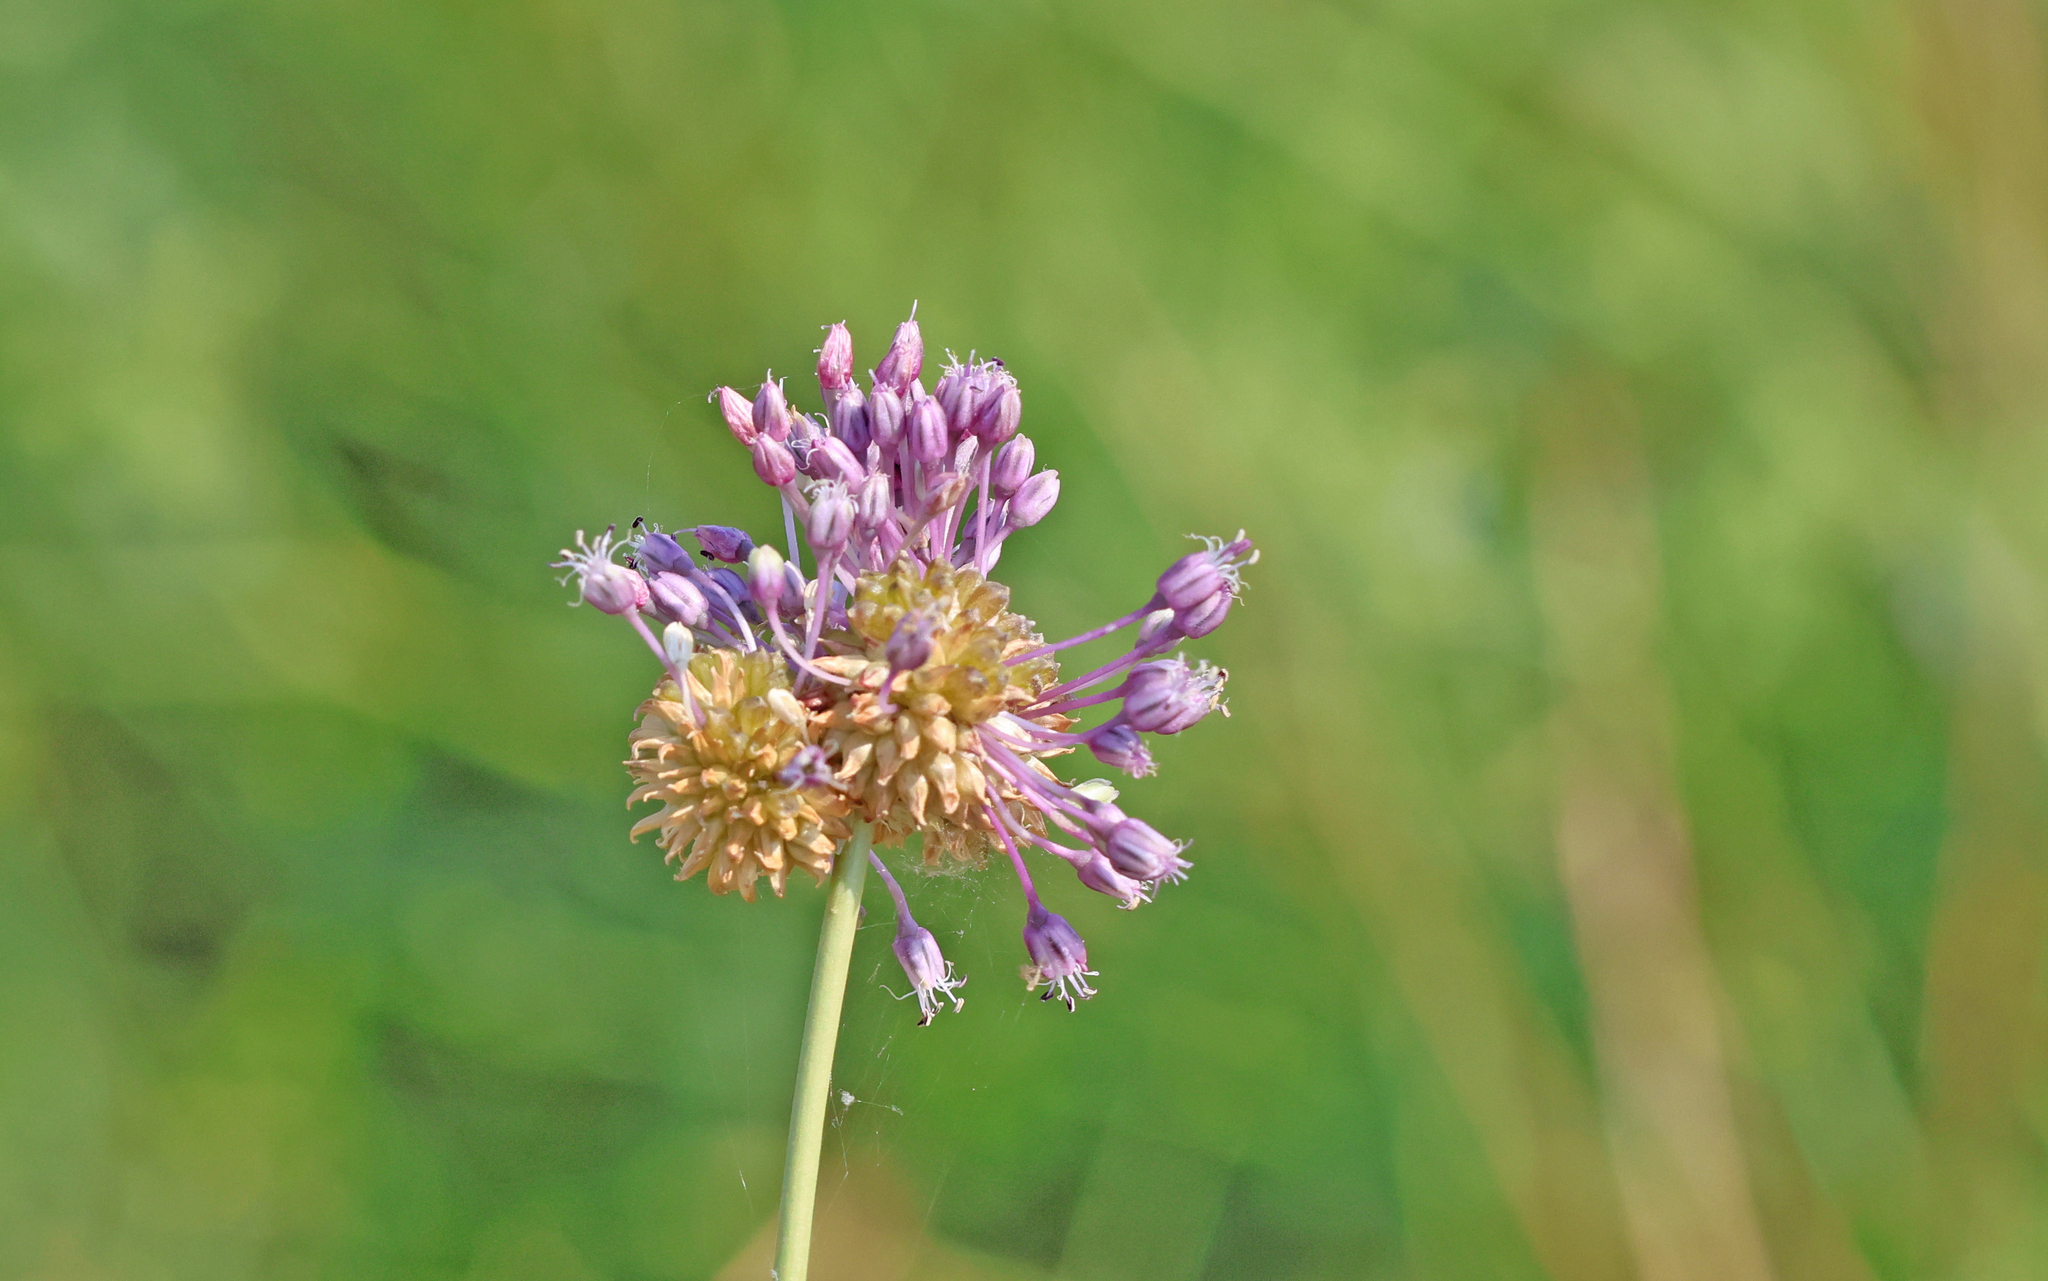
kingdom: Plantae
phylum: Tracheophyta
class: Liliopsida
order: Asparagales
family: Amaryllidaceae
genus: Allium
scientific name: Allium vineale
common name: Crow garlic
